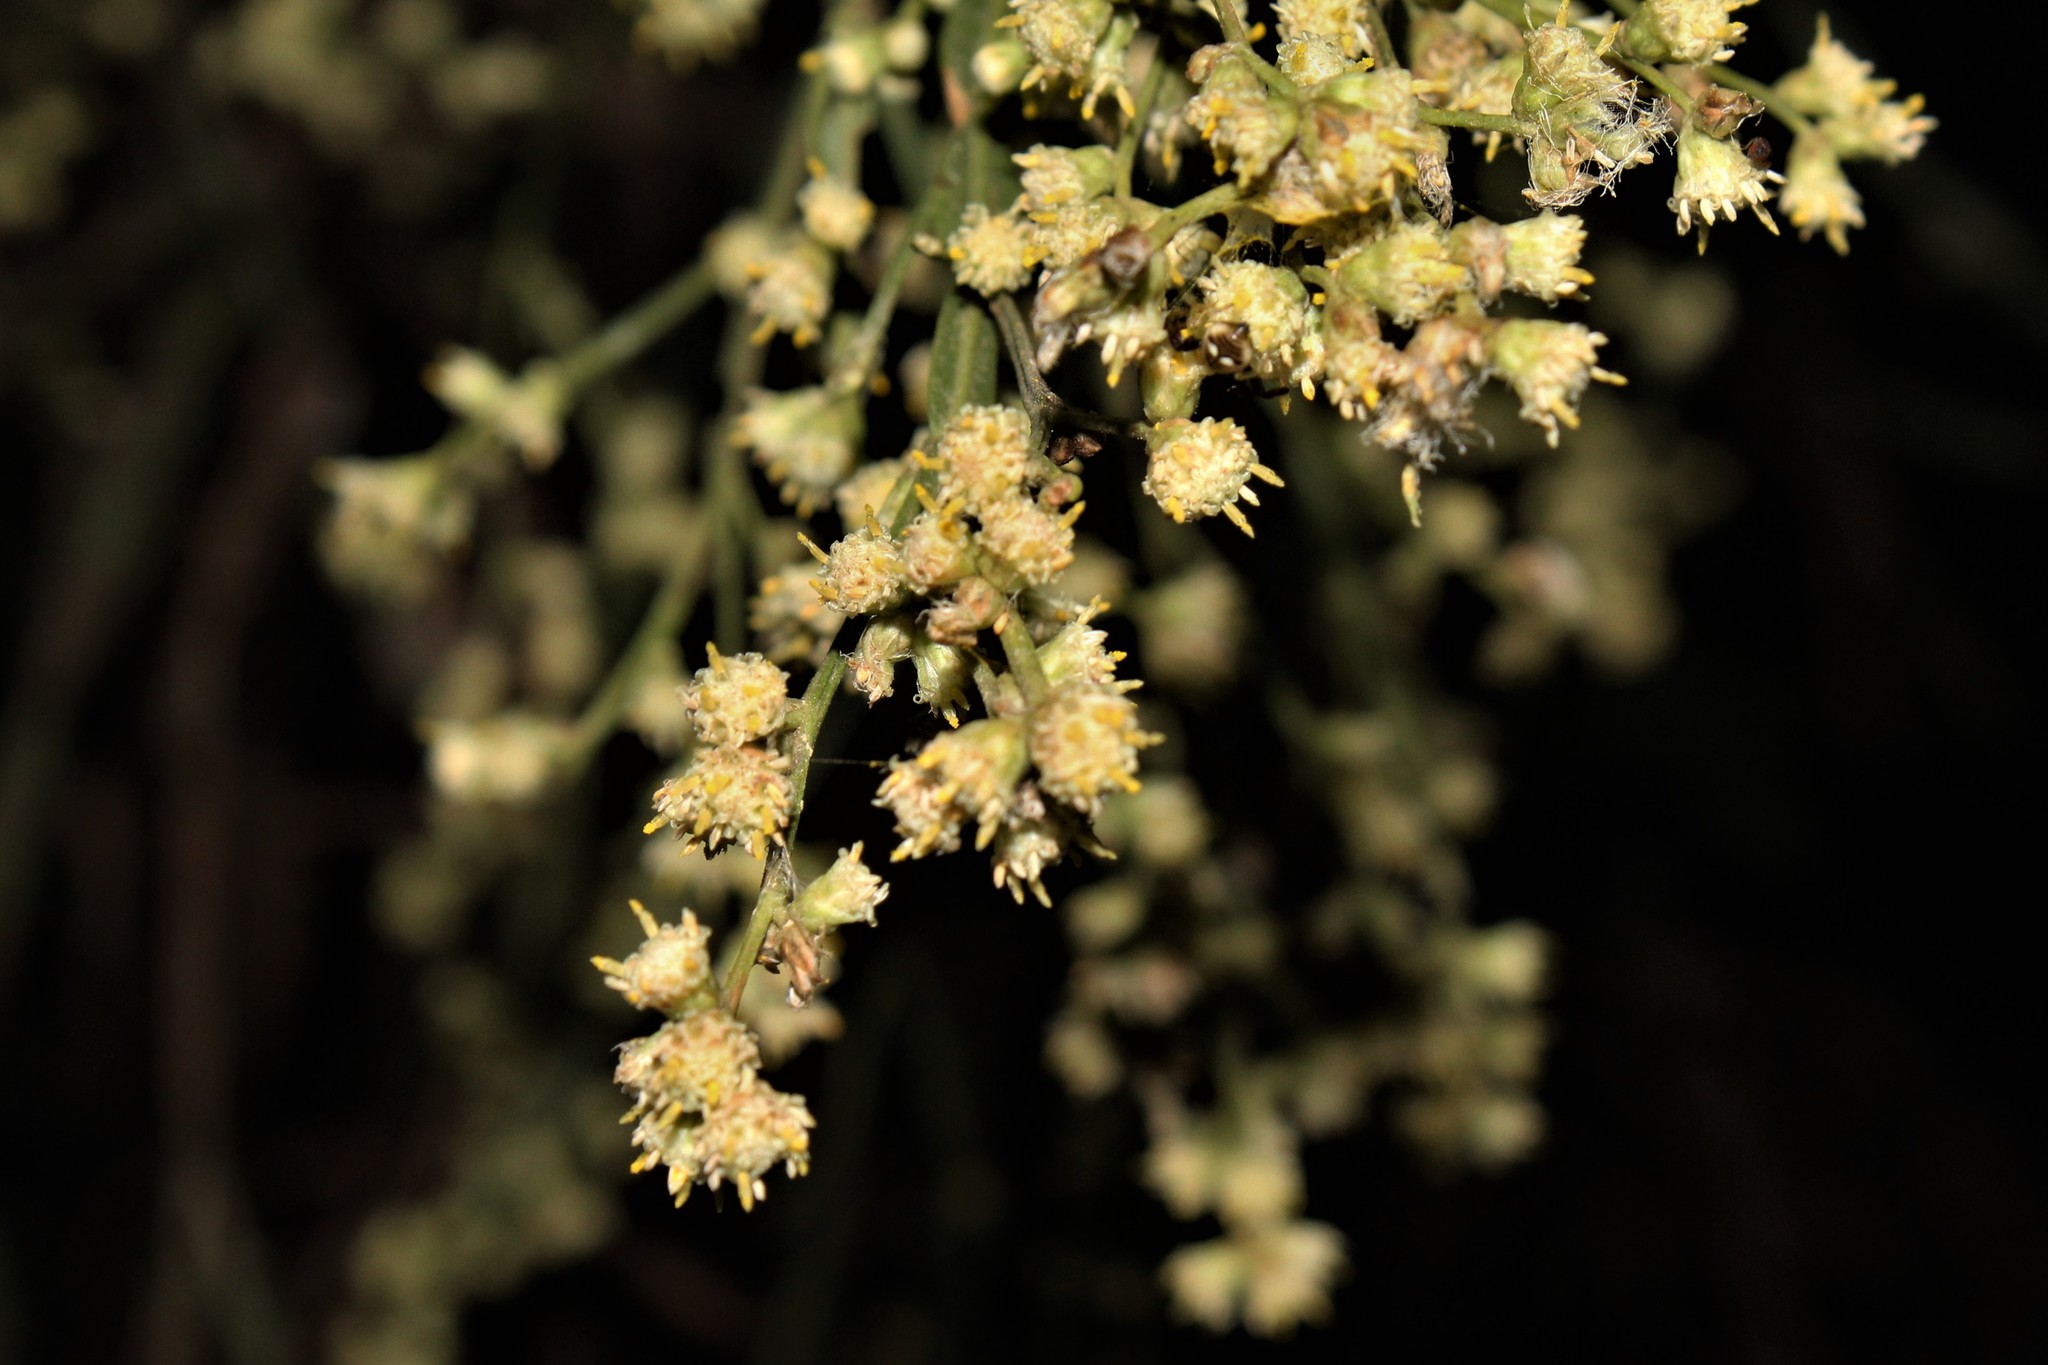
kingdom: Plantae
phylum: Tracheophyta
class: Magnoliopsida
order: Asterales
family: Asteraceae
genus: Baccharis
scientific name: Baccharis articulata
